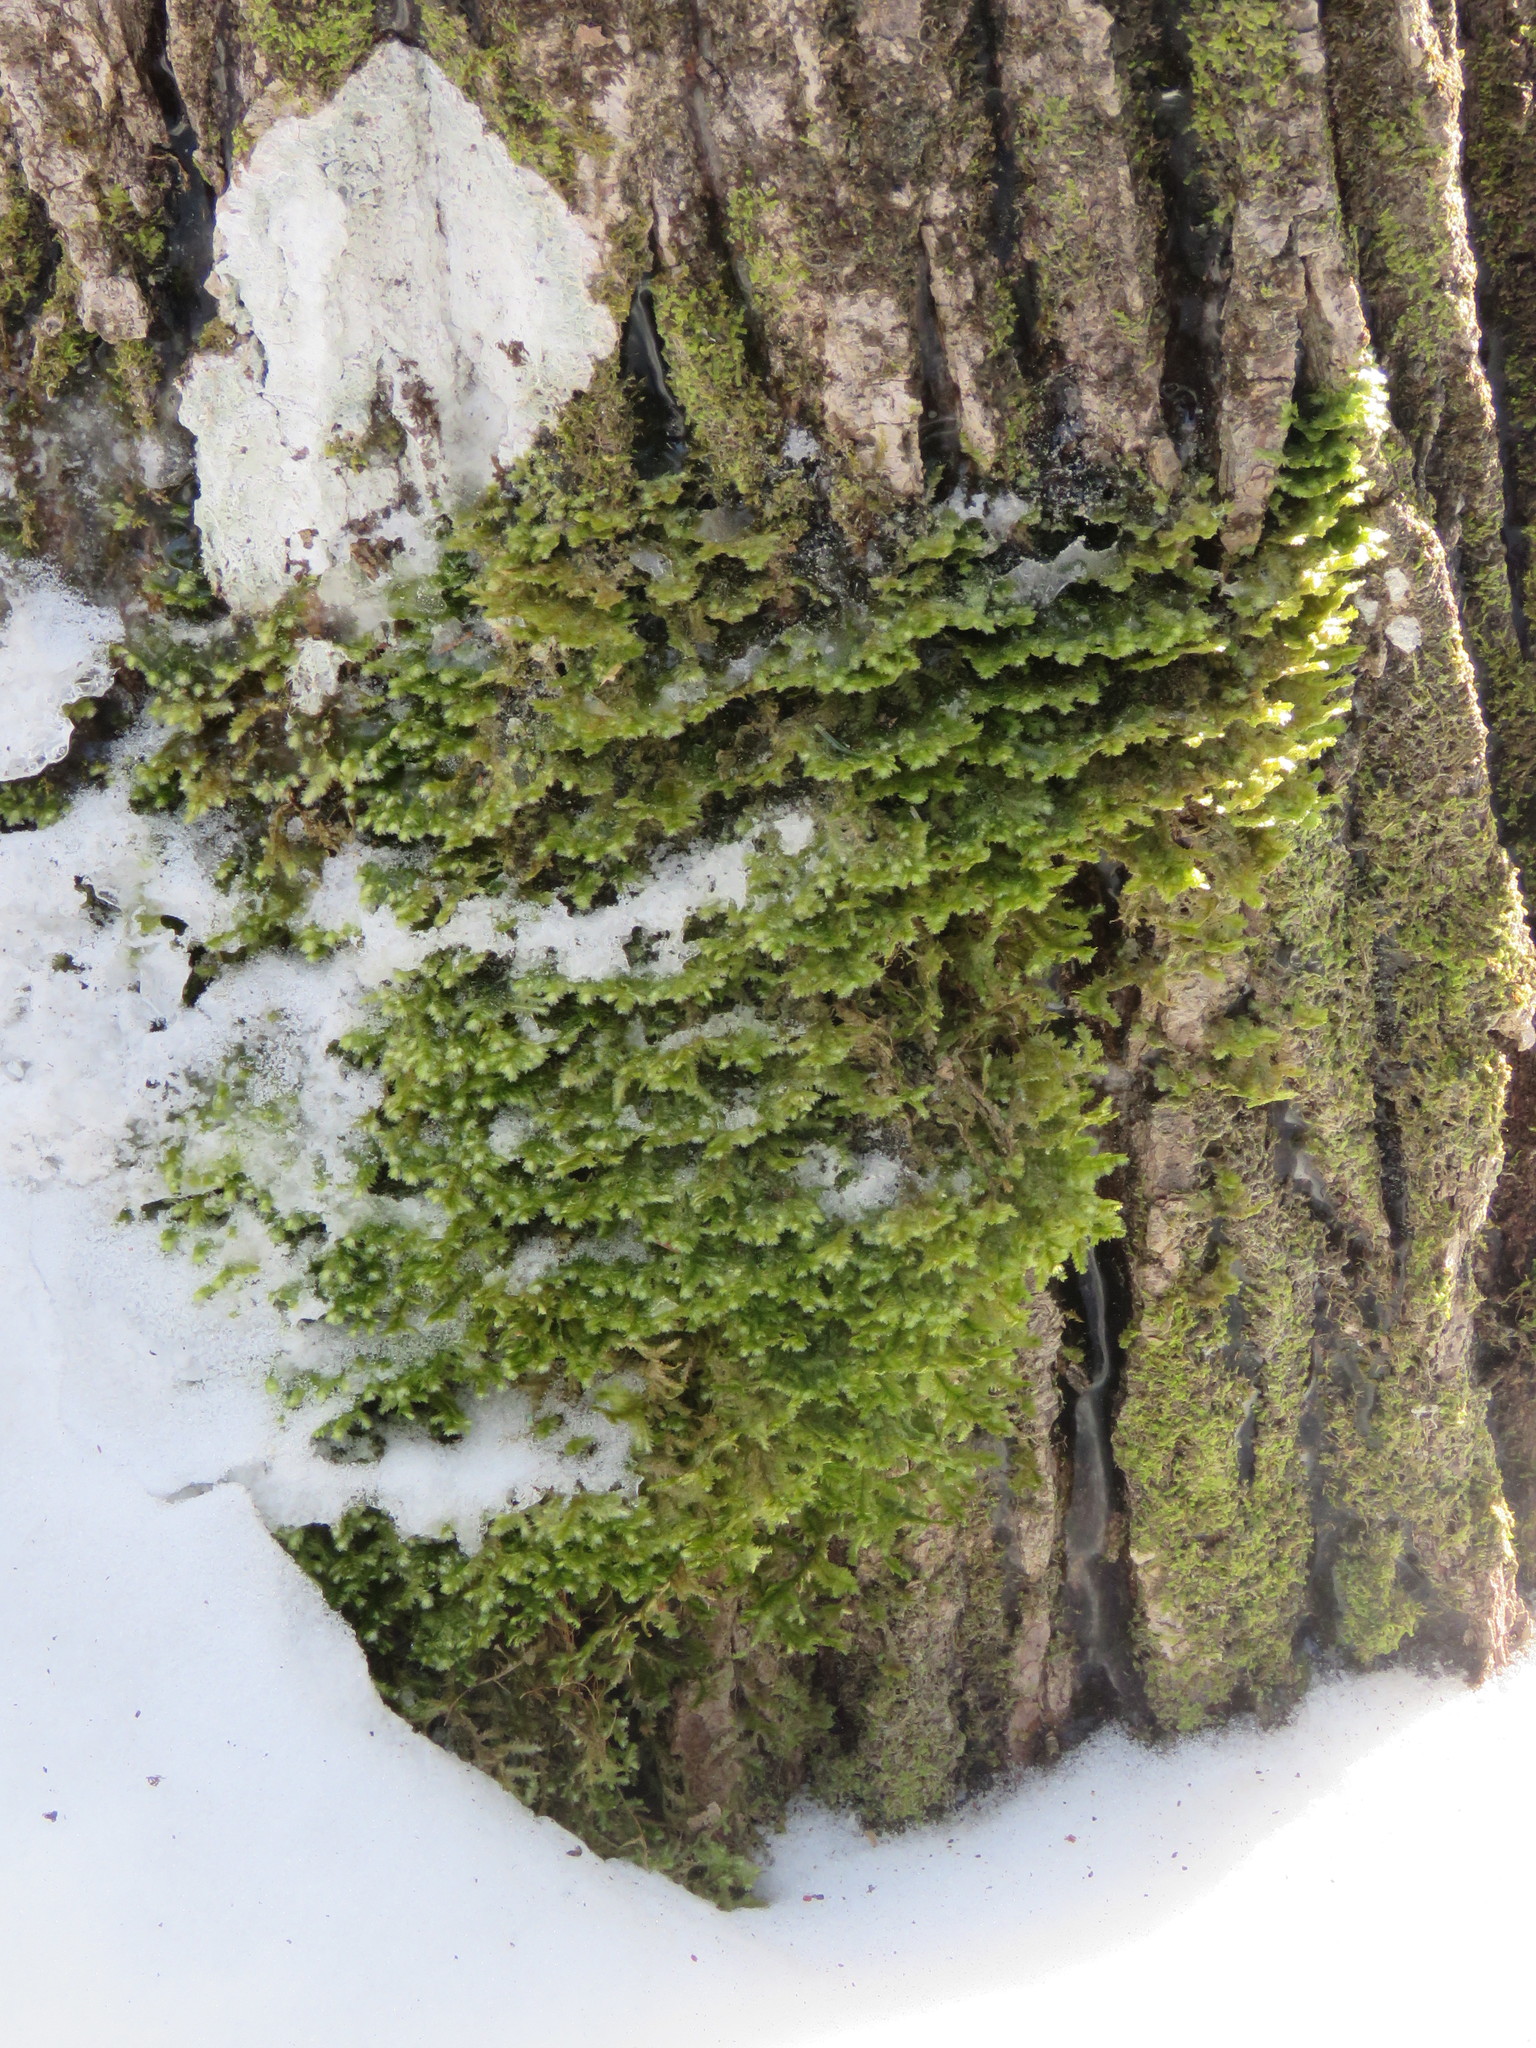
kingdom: Plantae
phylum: Bryophyta
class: Bryopsida
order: Hypnales
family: Neckeraceae
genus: Neckera
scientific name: Neckera pennata
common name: Feathery neckera
